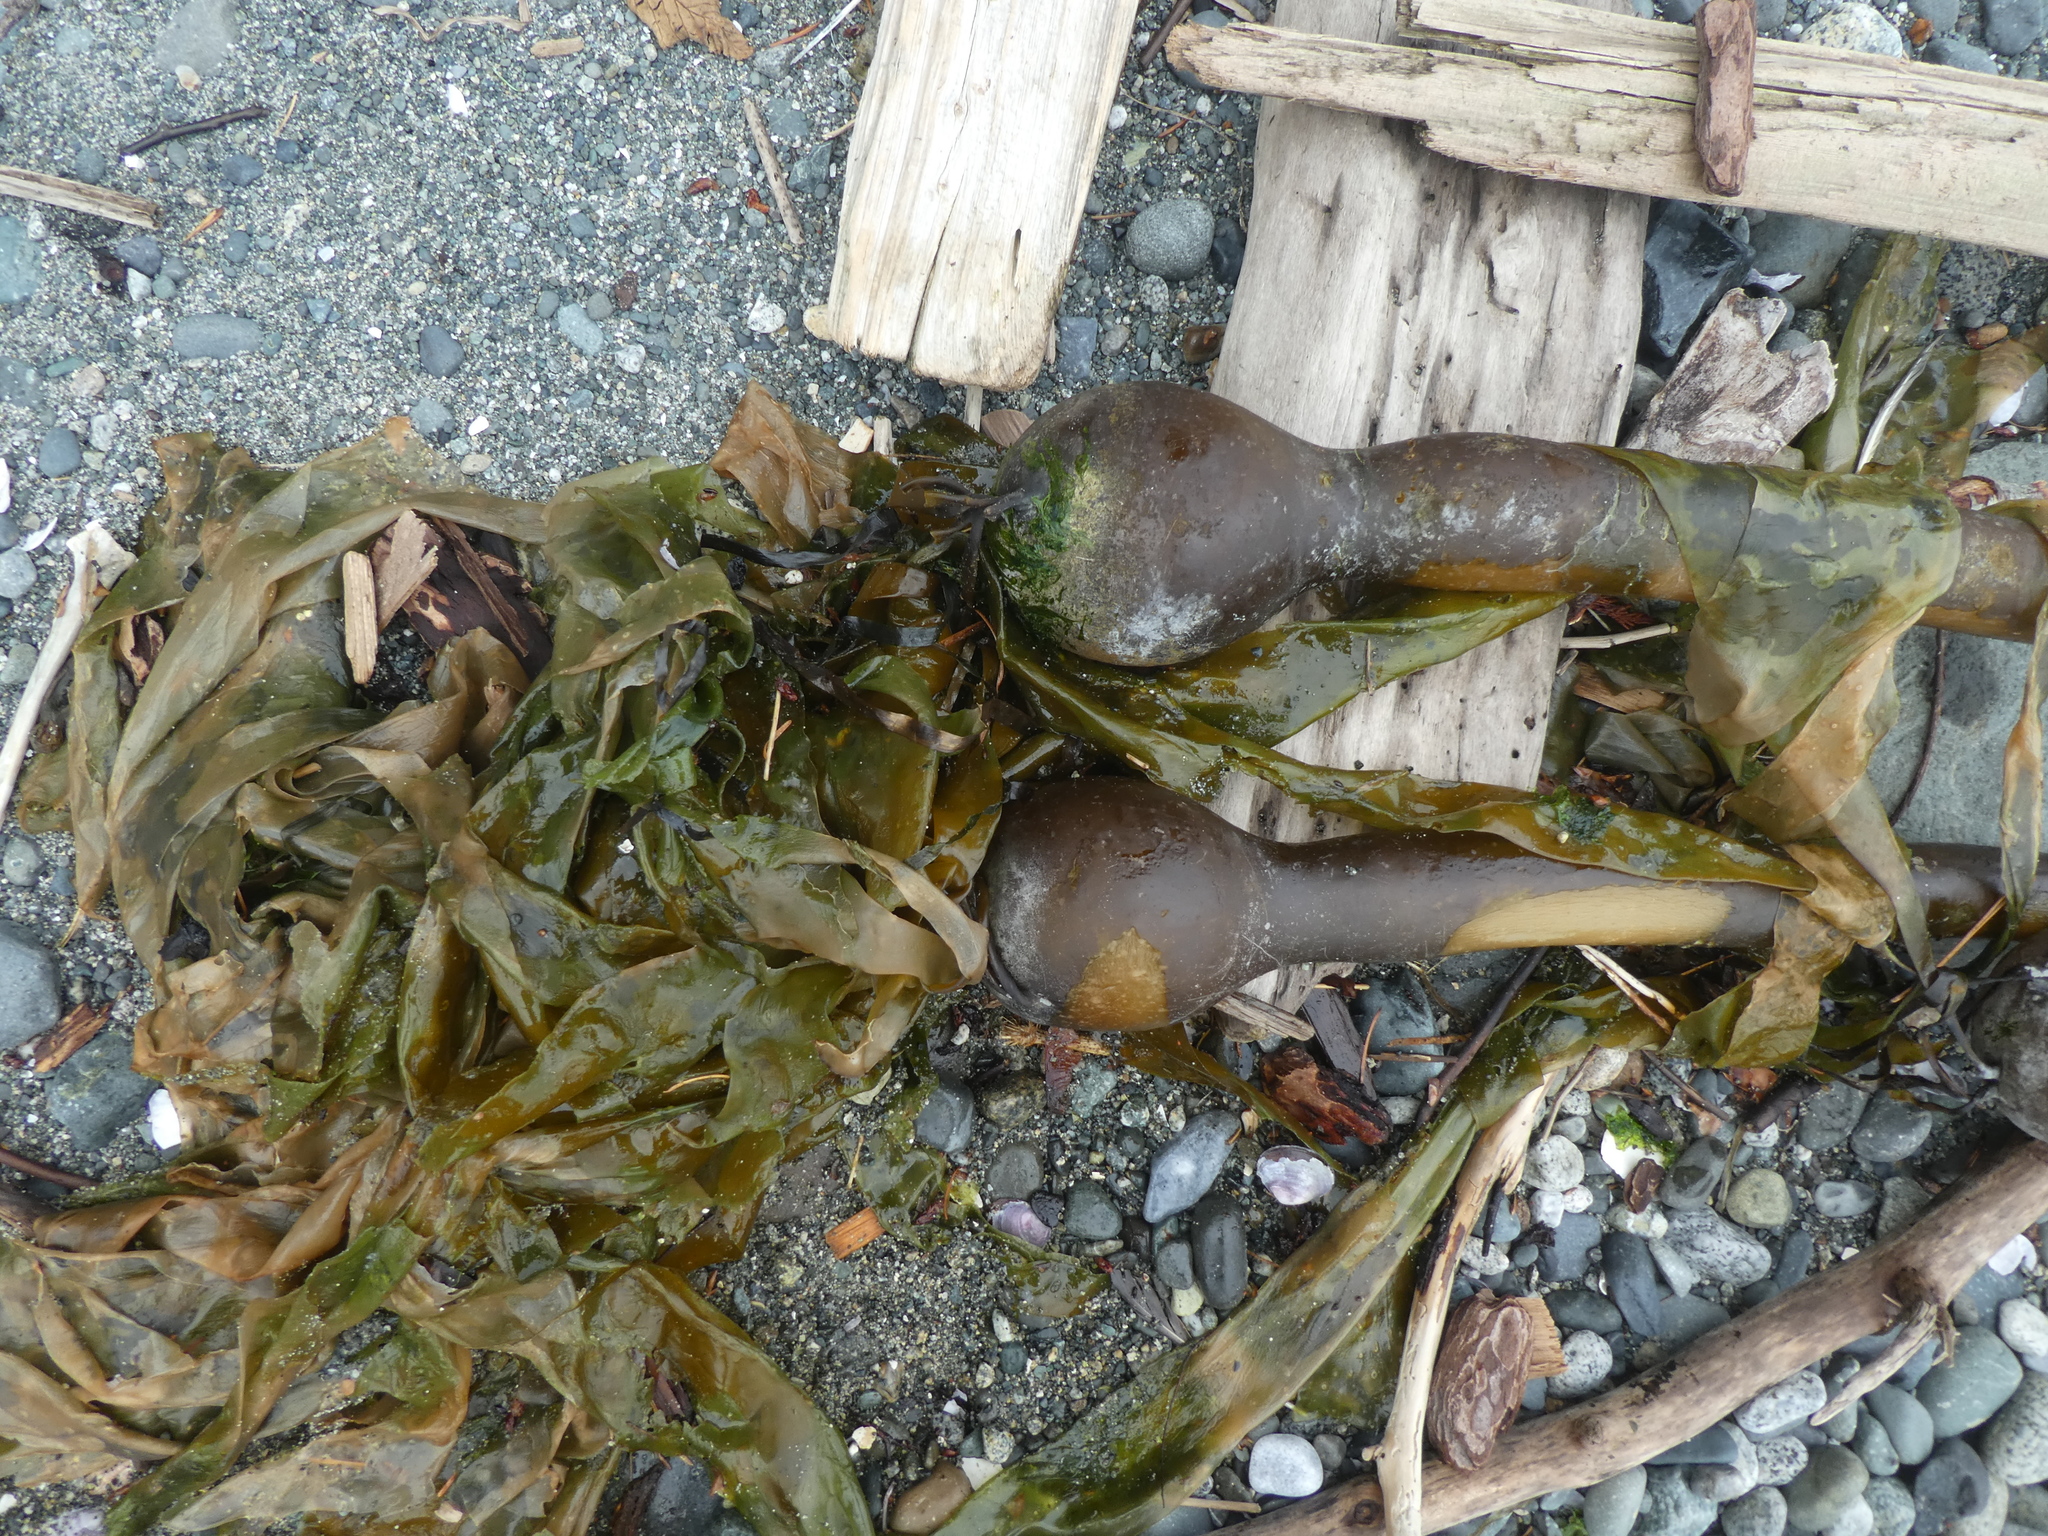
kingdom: Chromista
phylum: Ochrophyta
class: Phaeophyceae
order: Laminariales
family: Laminariaceae
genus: Nereocystis
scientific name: Nereocystis luetkeana
